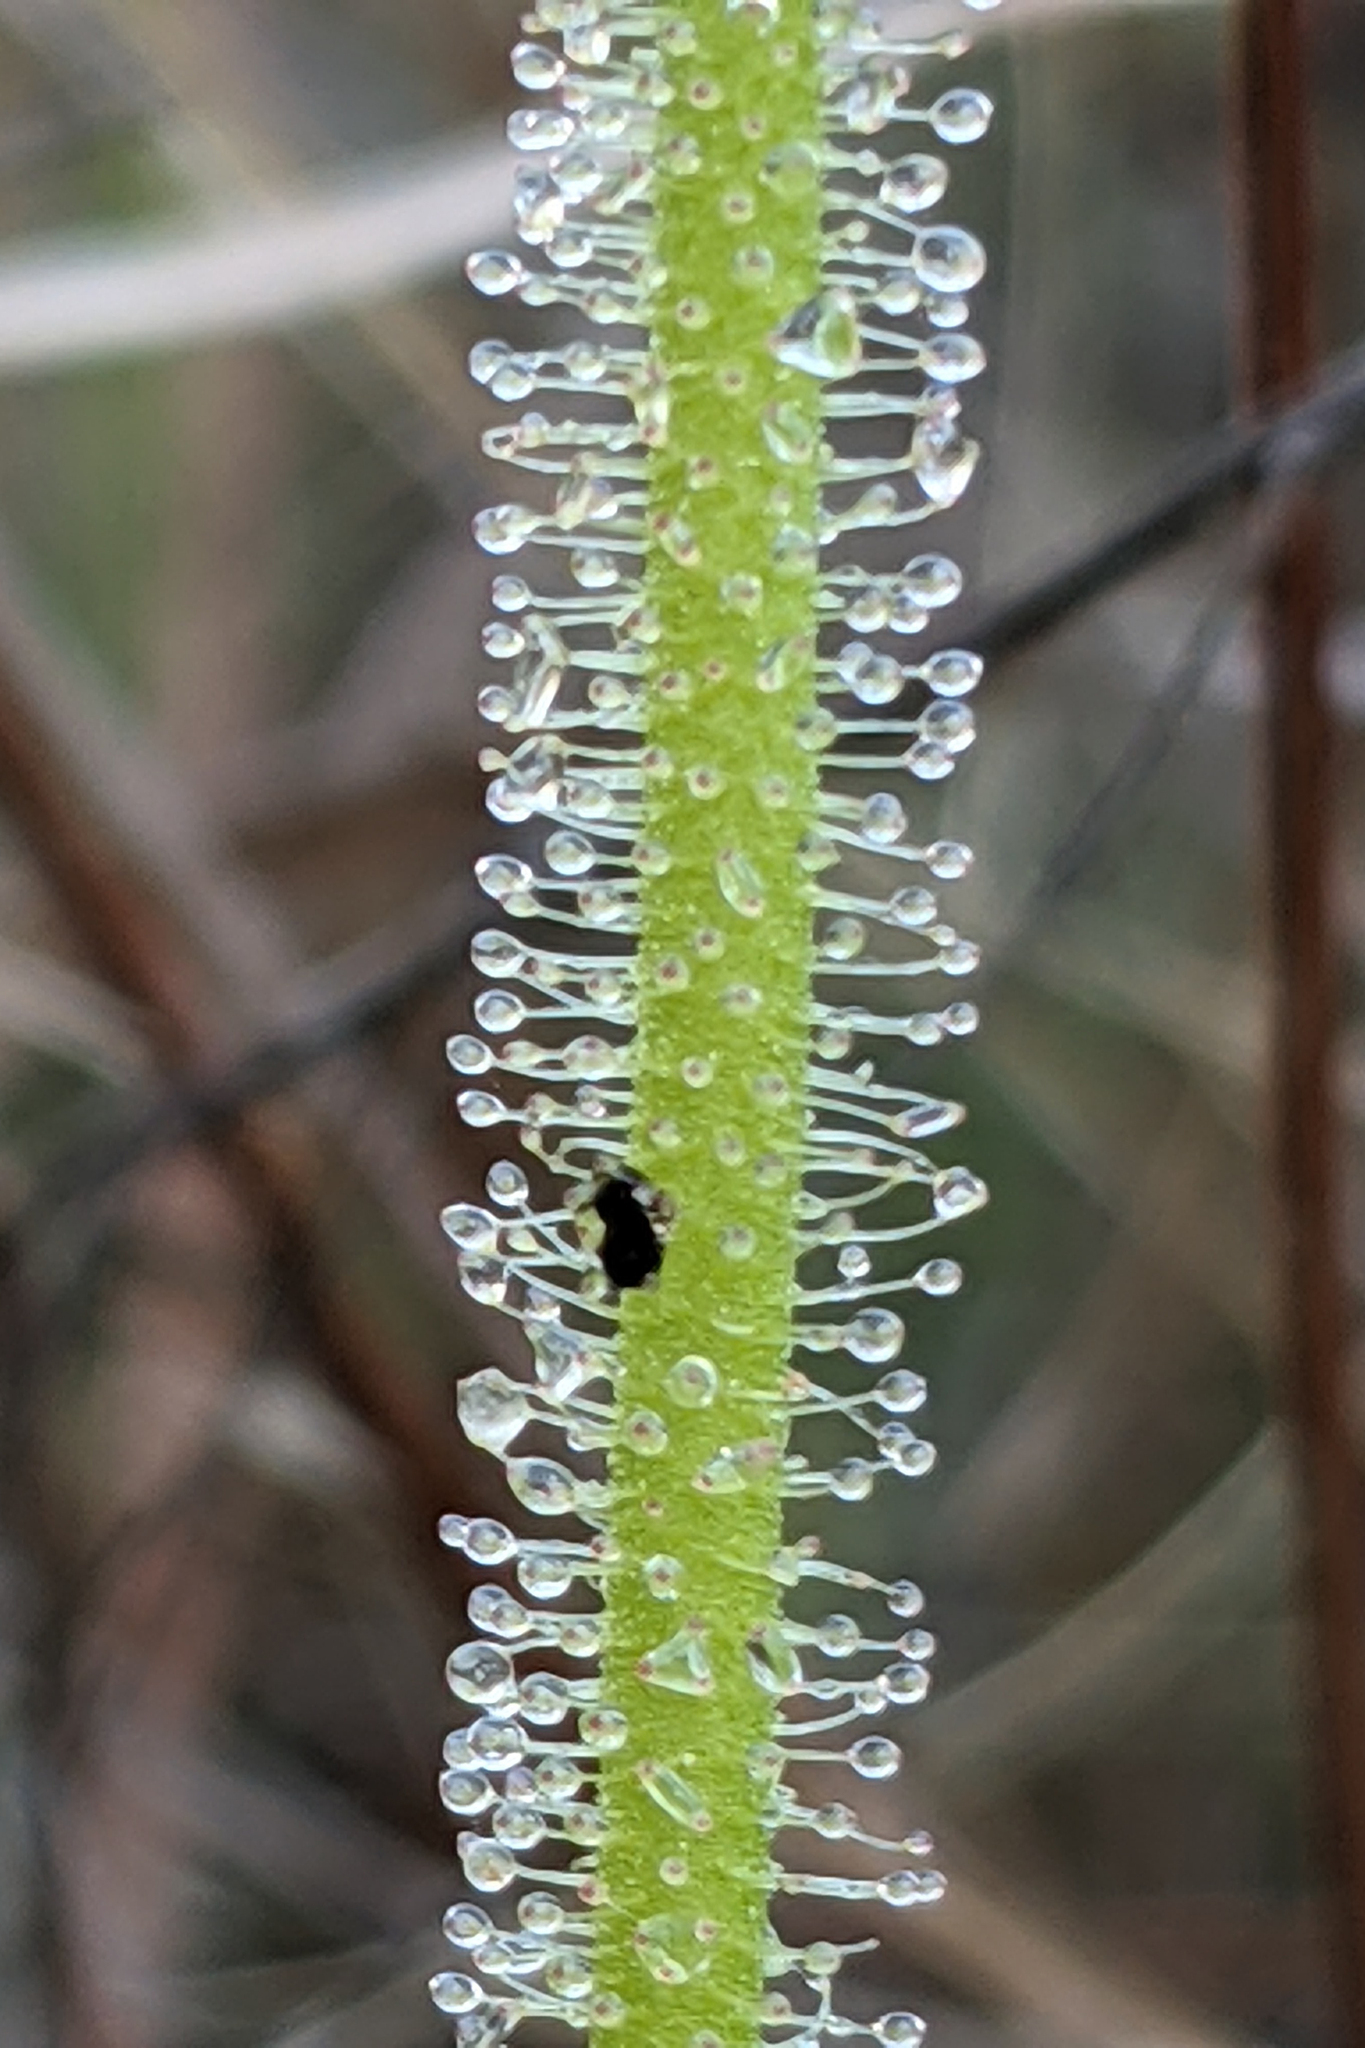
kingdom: Plantae
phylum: Tracheophyta
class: Magnoliopsida
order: Caryophyllales
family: Droseraceae
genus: Drosera
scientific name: Drosera filiformis
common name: Dew-thread
